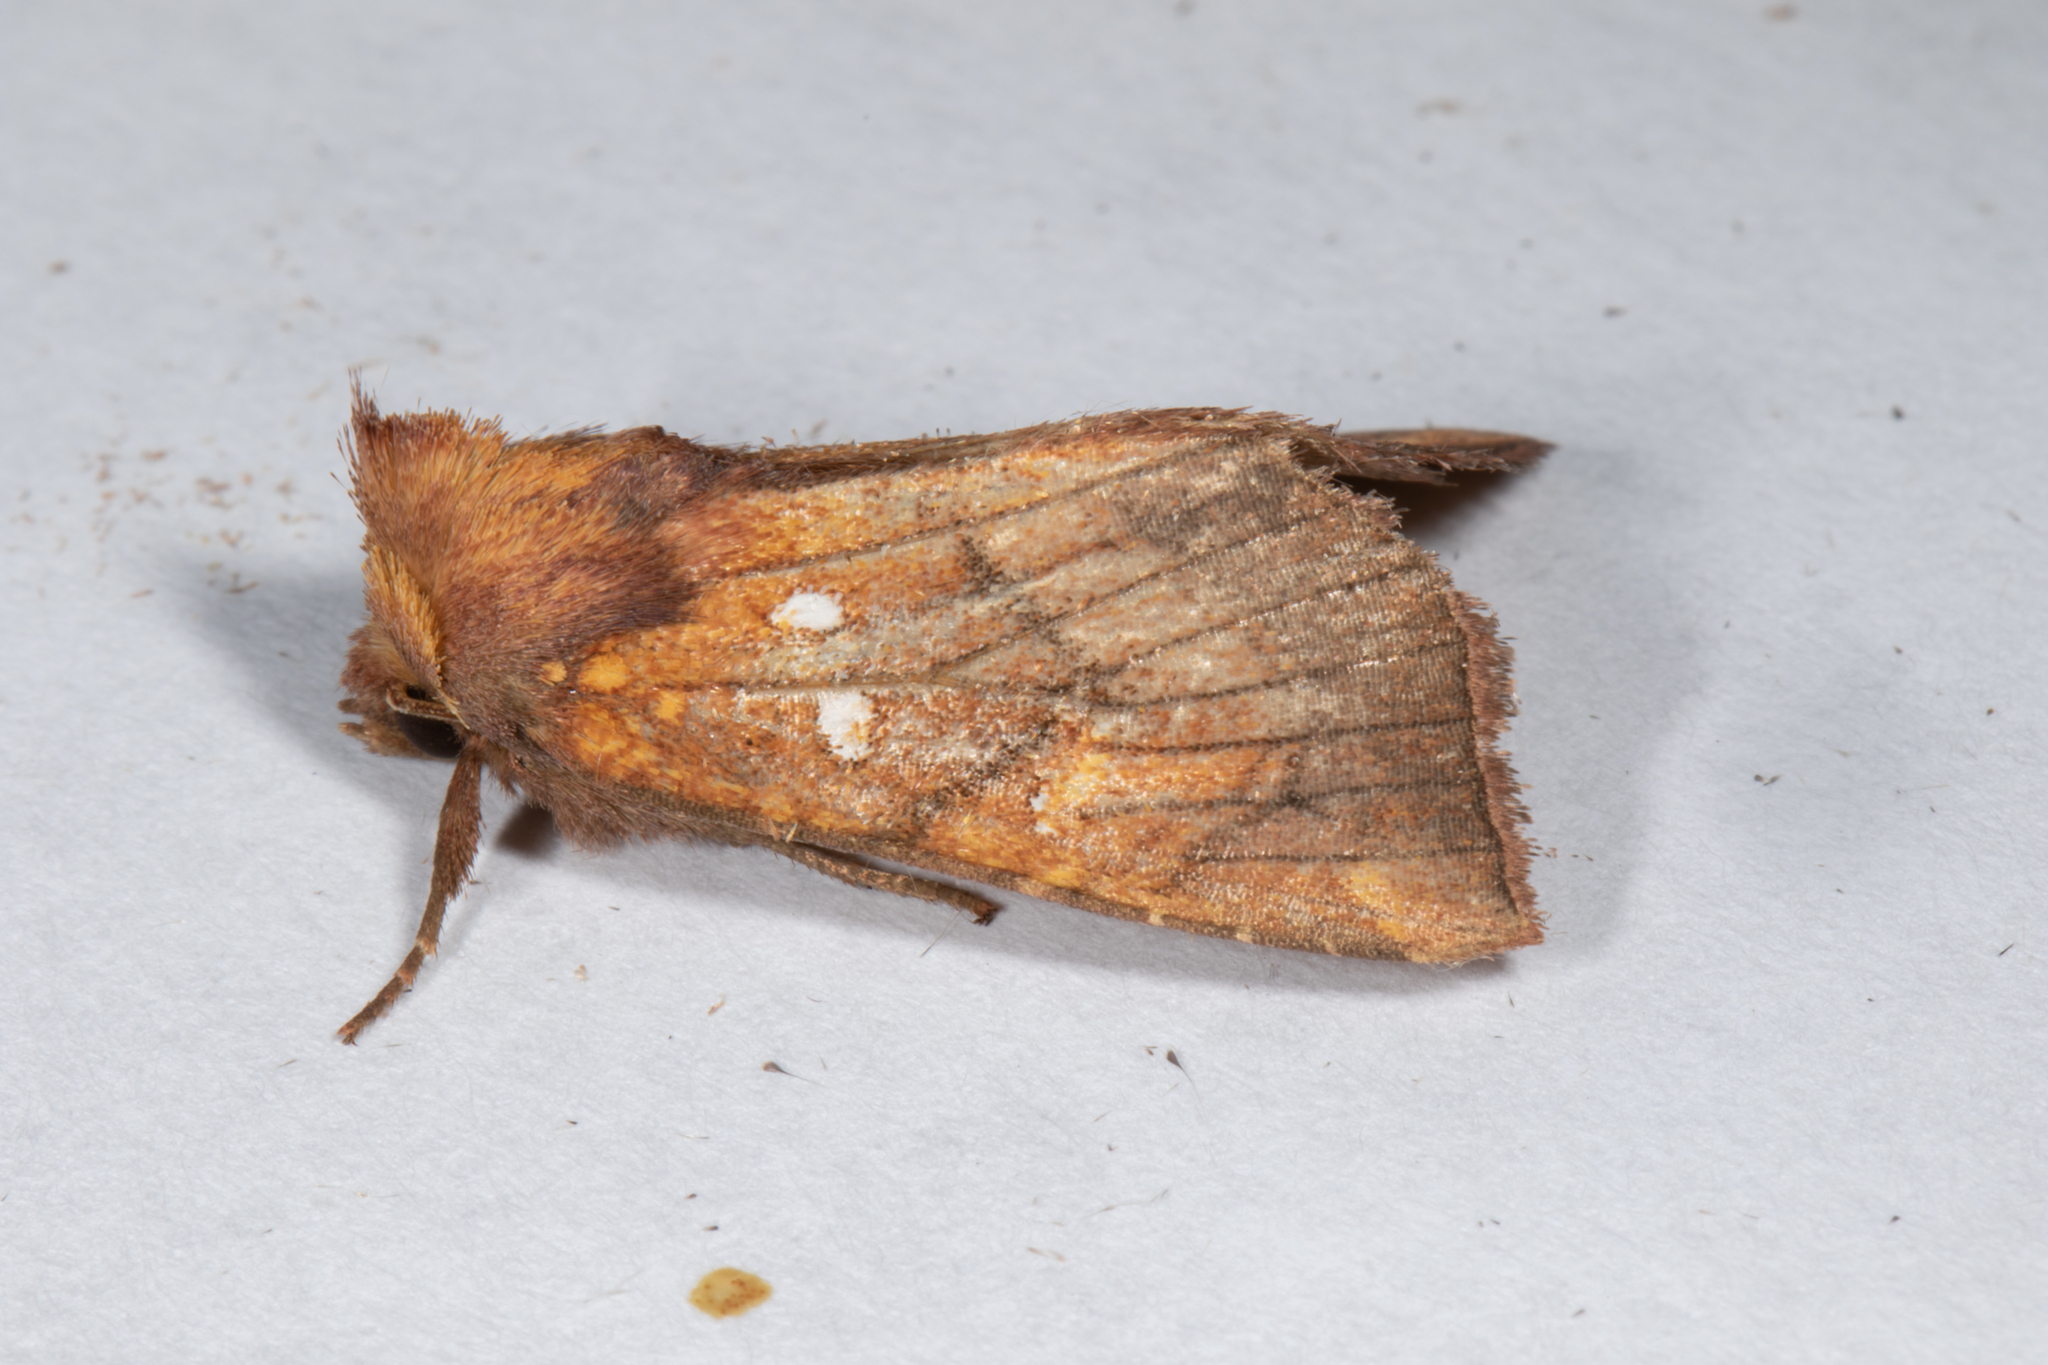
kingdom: Animalia
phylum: Arthropoda
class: Insecta
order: Lepidoptera
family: Noctuidae
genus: Papaipema
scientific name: Papaipema inquaesita
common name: Sensitive fern borer moth
